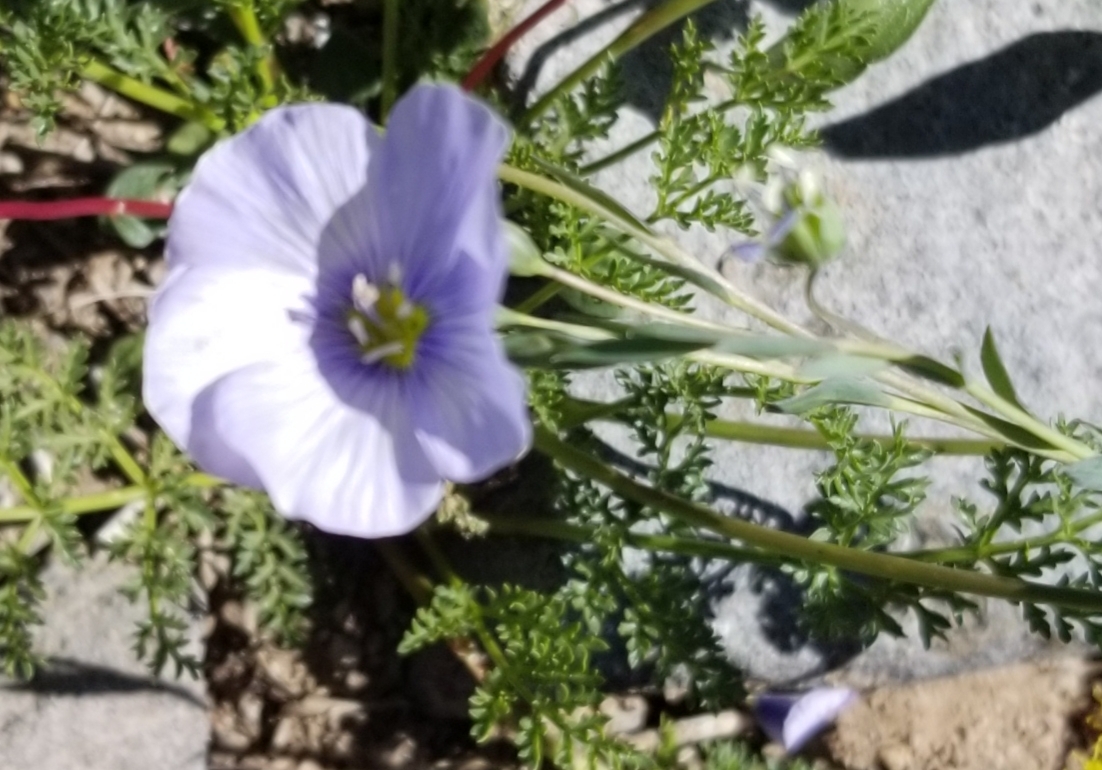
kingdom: Plantae
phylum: Tracheophyta
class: Magnoliopsida
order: Malpighiales
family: Linaceae
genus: Linum
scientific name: Linum lewisii
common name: Prairie flax
